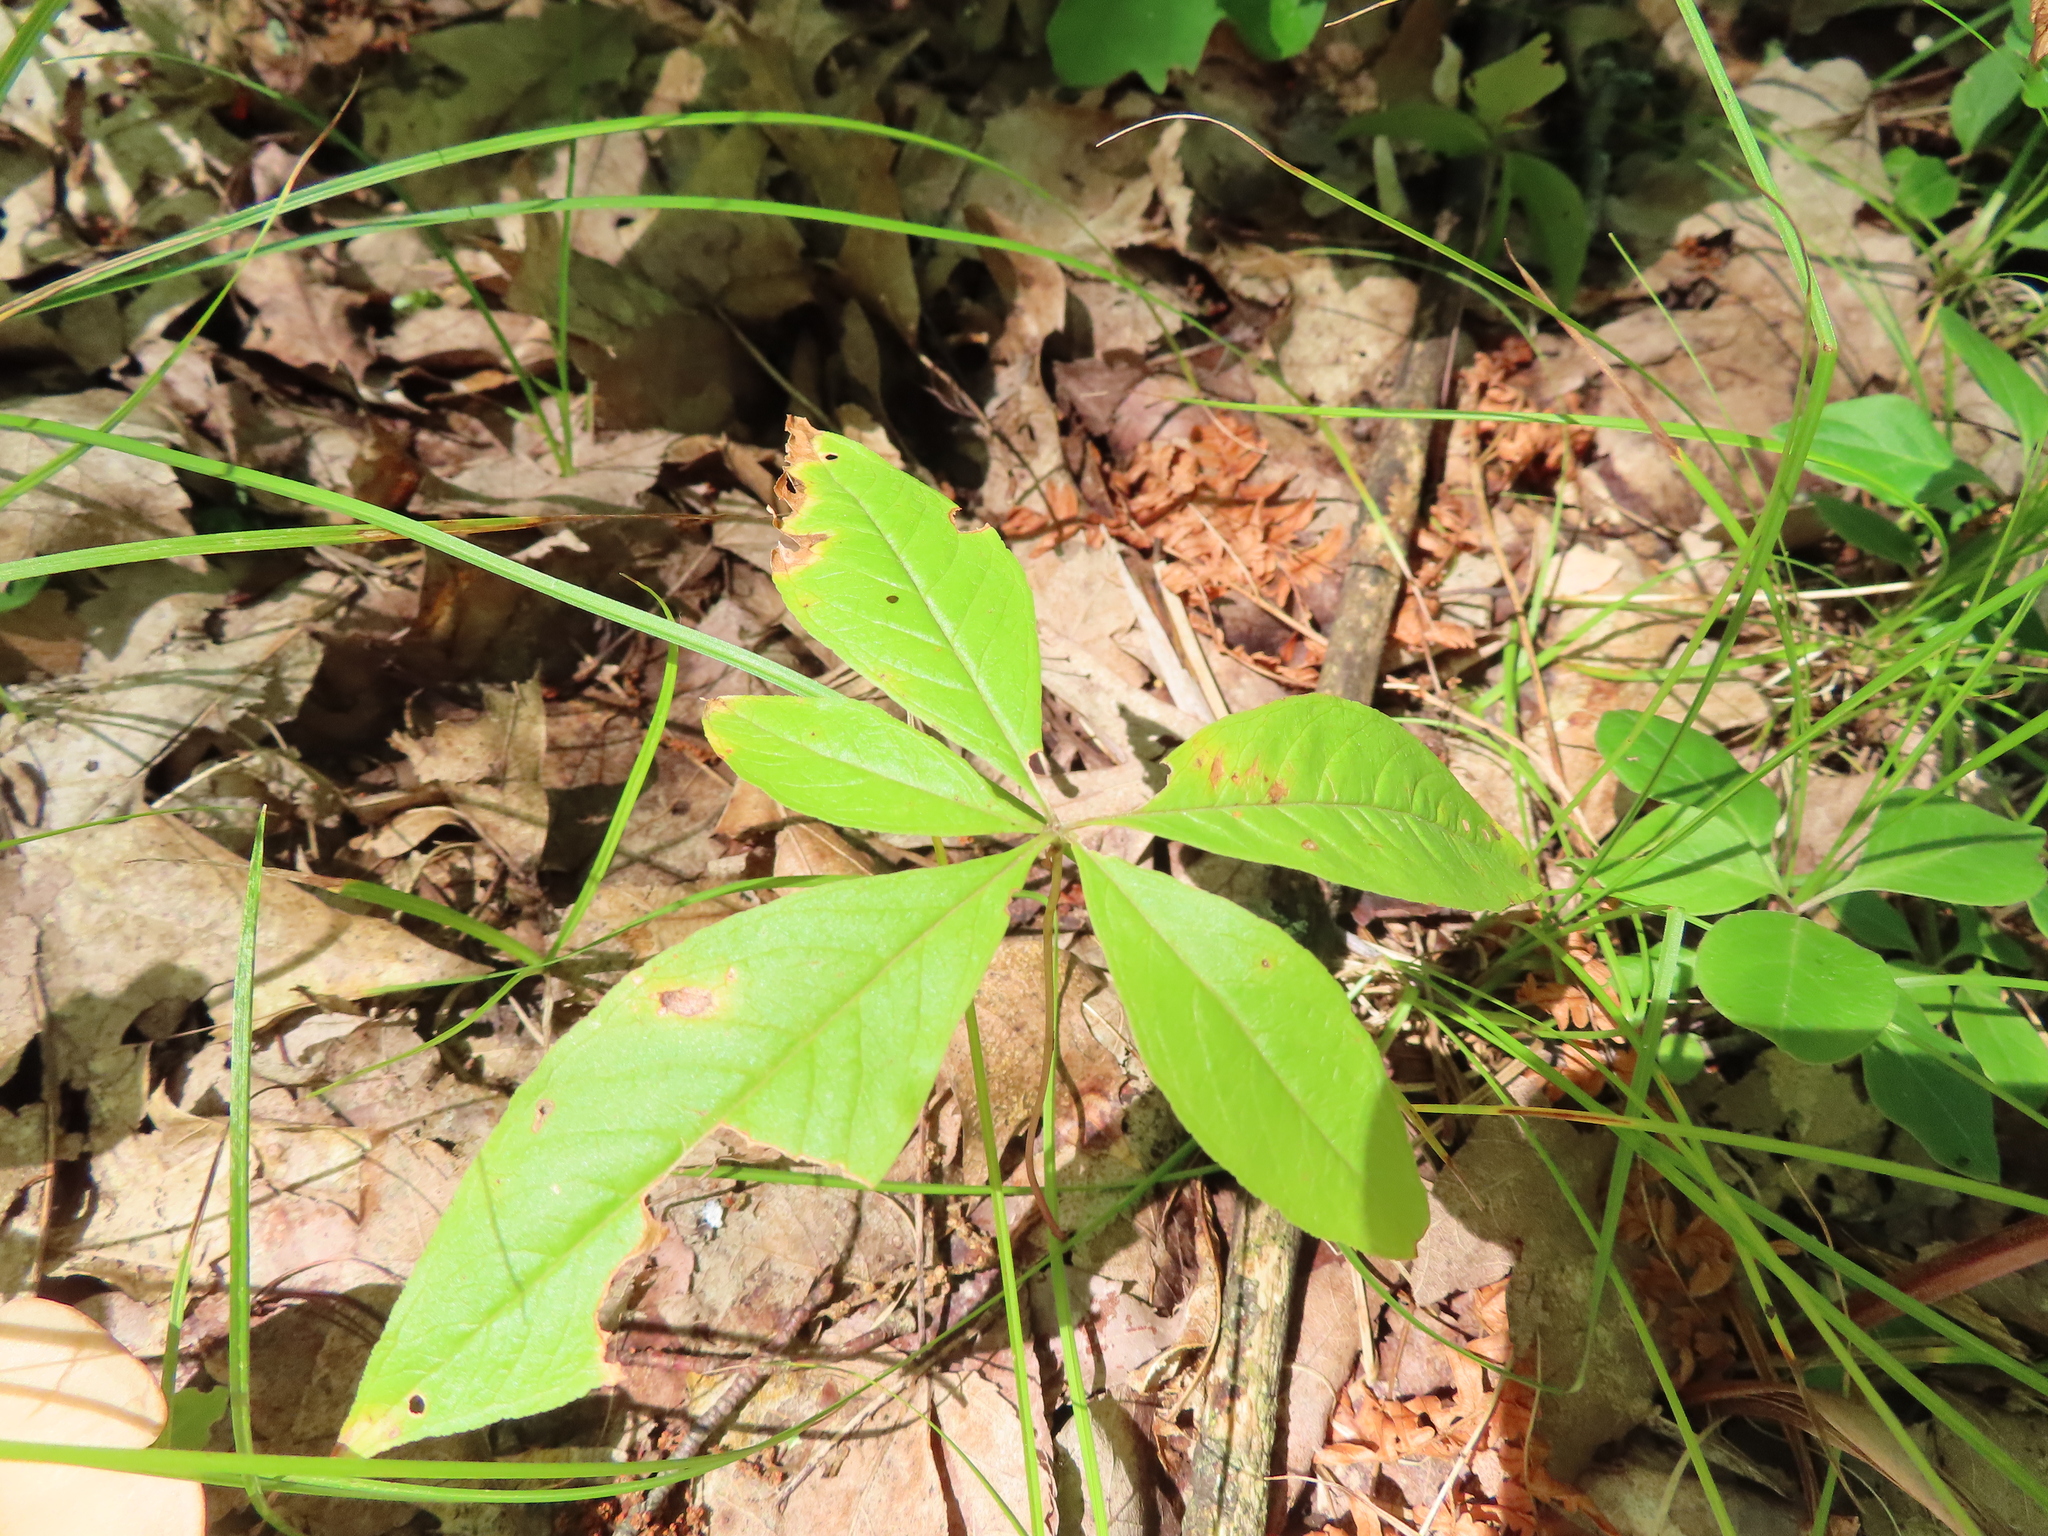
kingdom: Plantae
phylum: Tracheophyta
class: Magnoliopsida
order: Ericales
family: Primulaceae
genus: Lysimachia
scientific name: Lysimachia borealis
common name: American starflower
